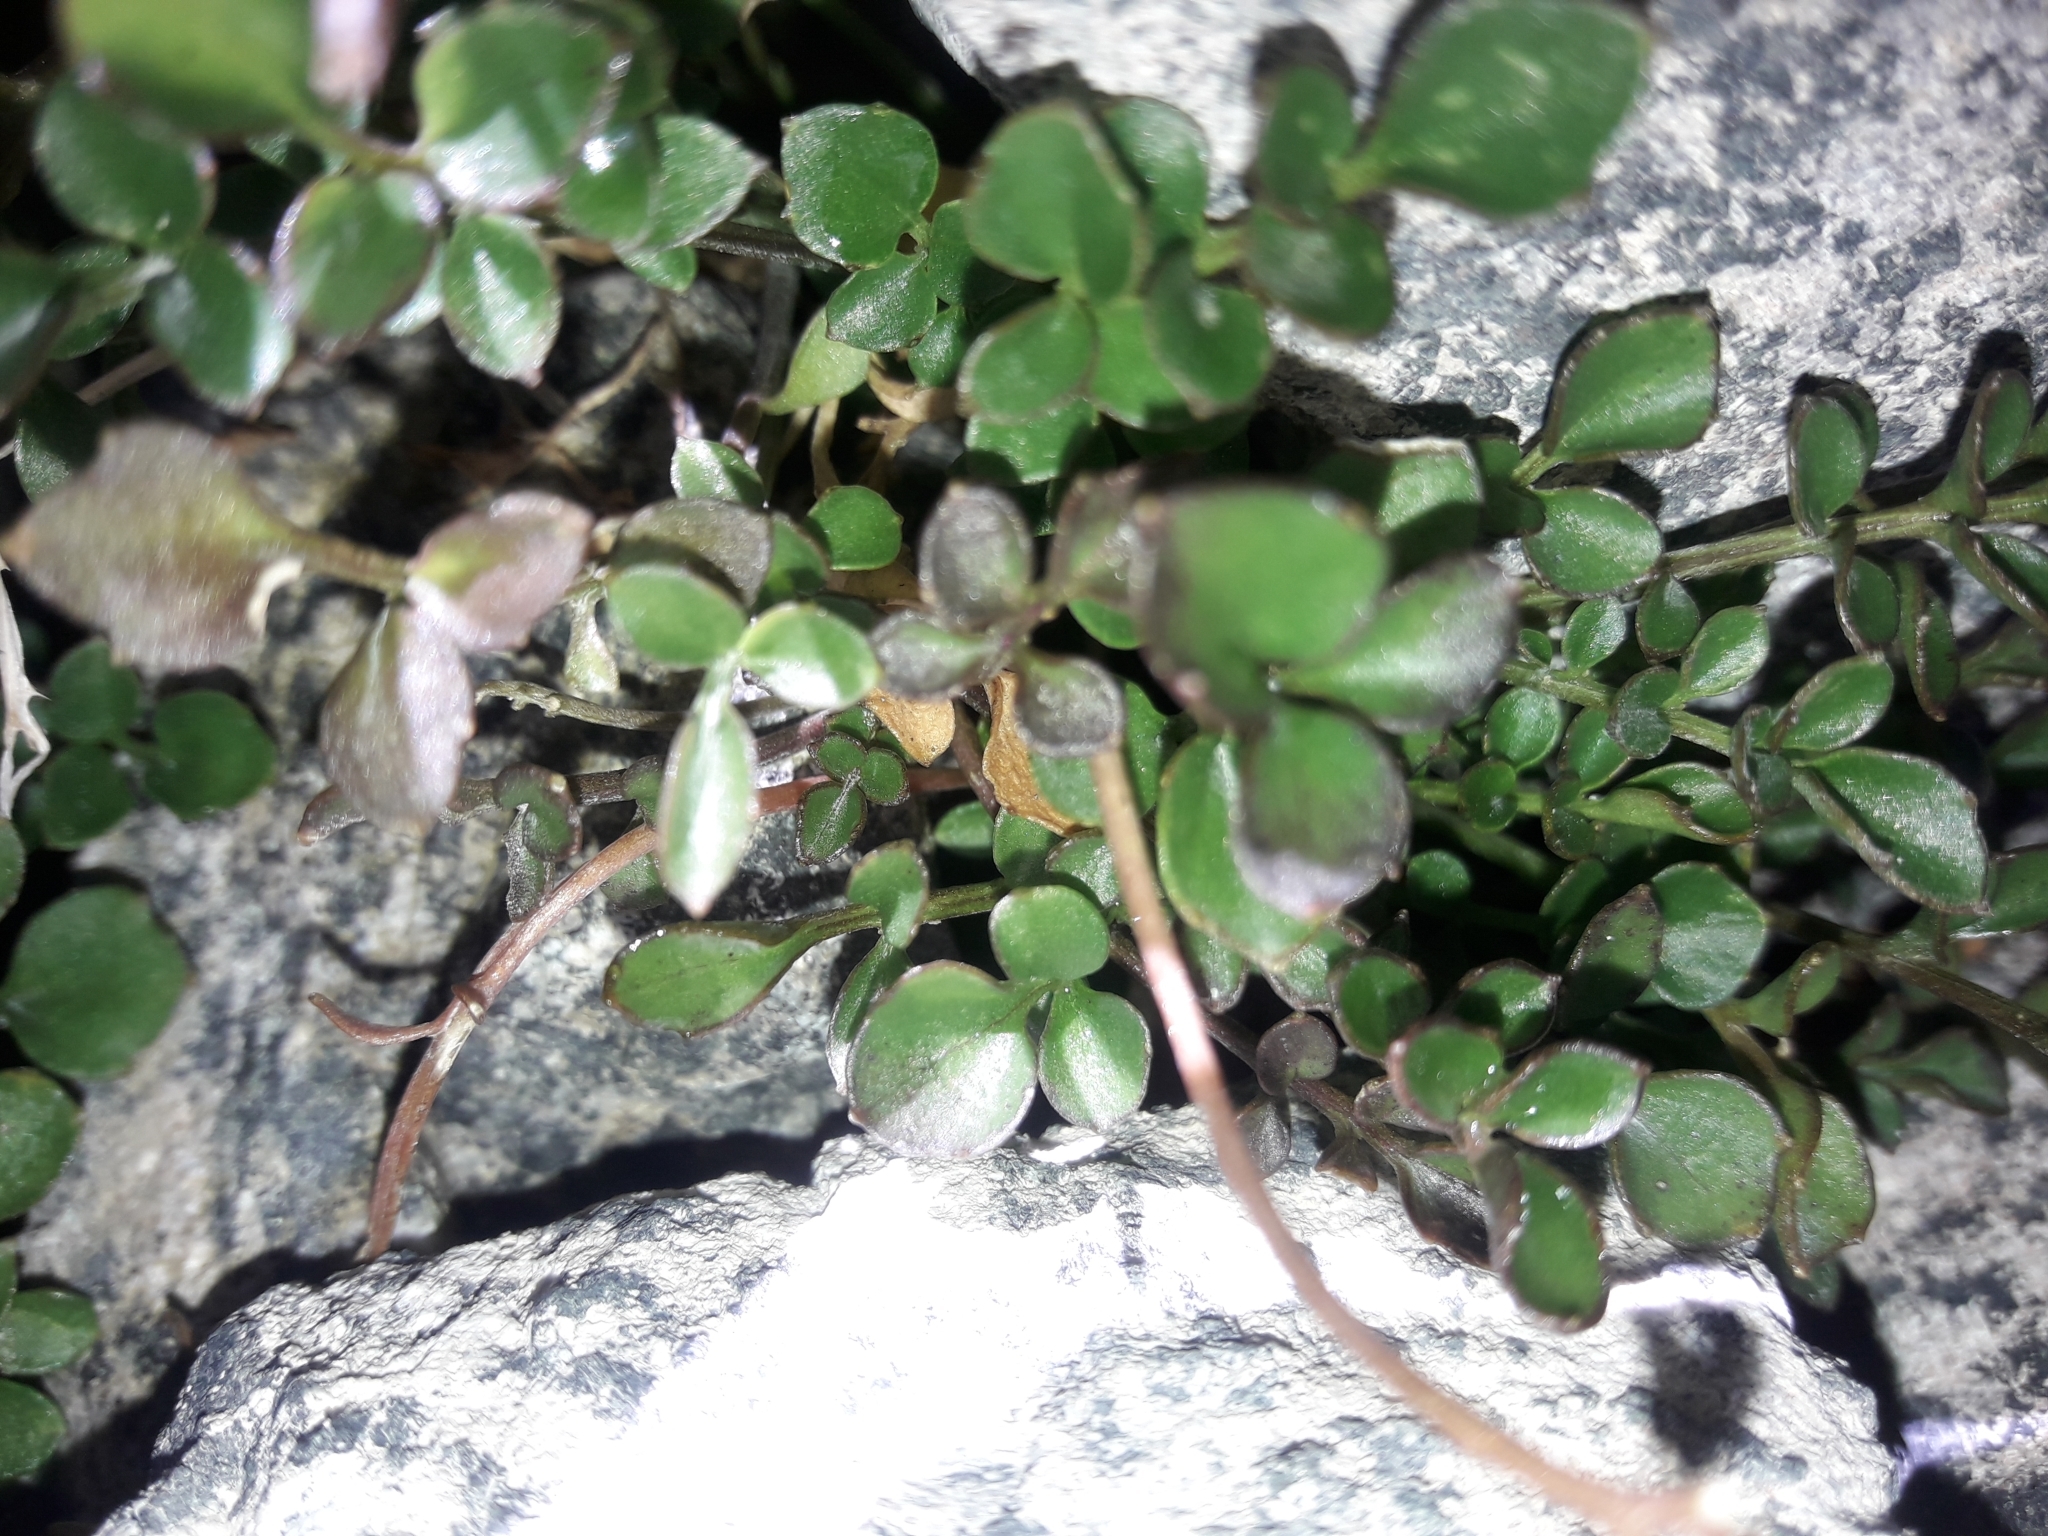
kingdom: Plantae
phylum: Tracheophyta
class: Magnoliopsida
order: Brassicales
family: Brassicaceae
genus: Cardamine
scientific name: Cardamine eminentia
